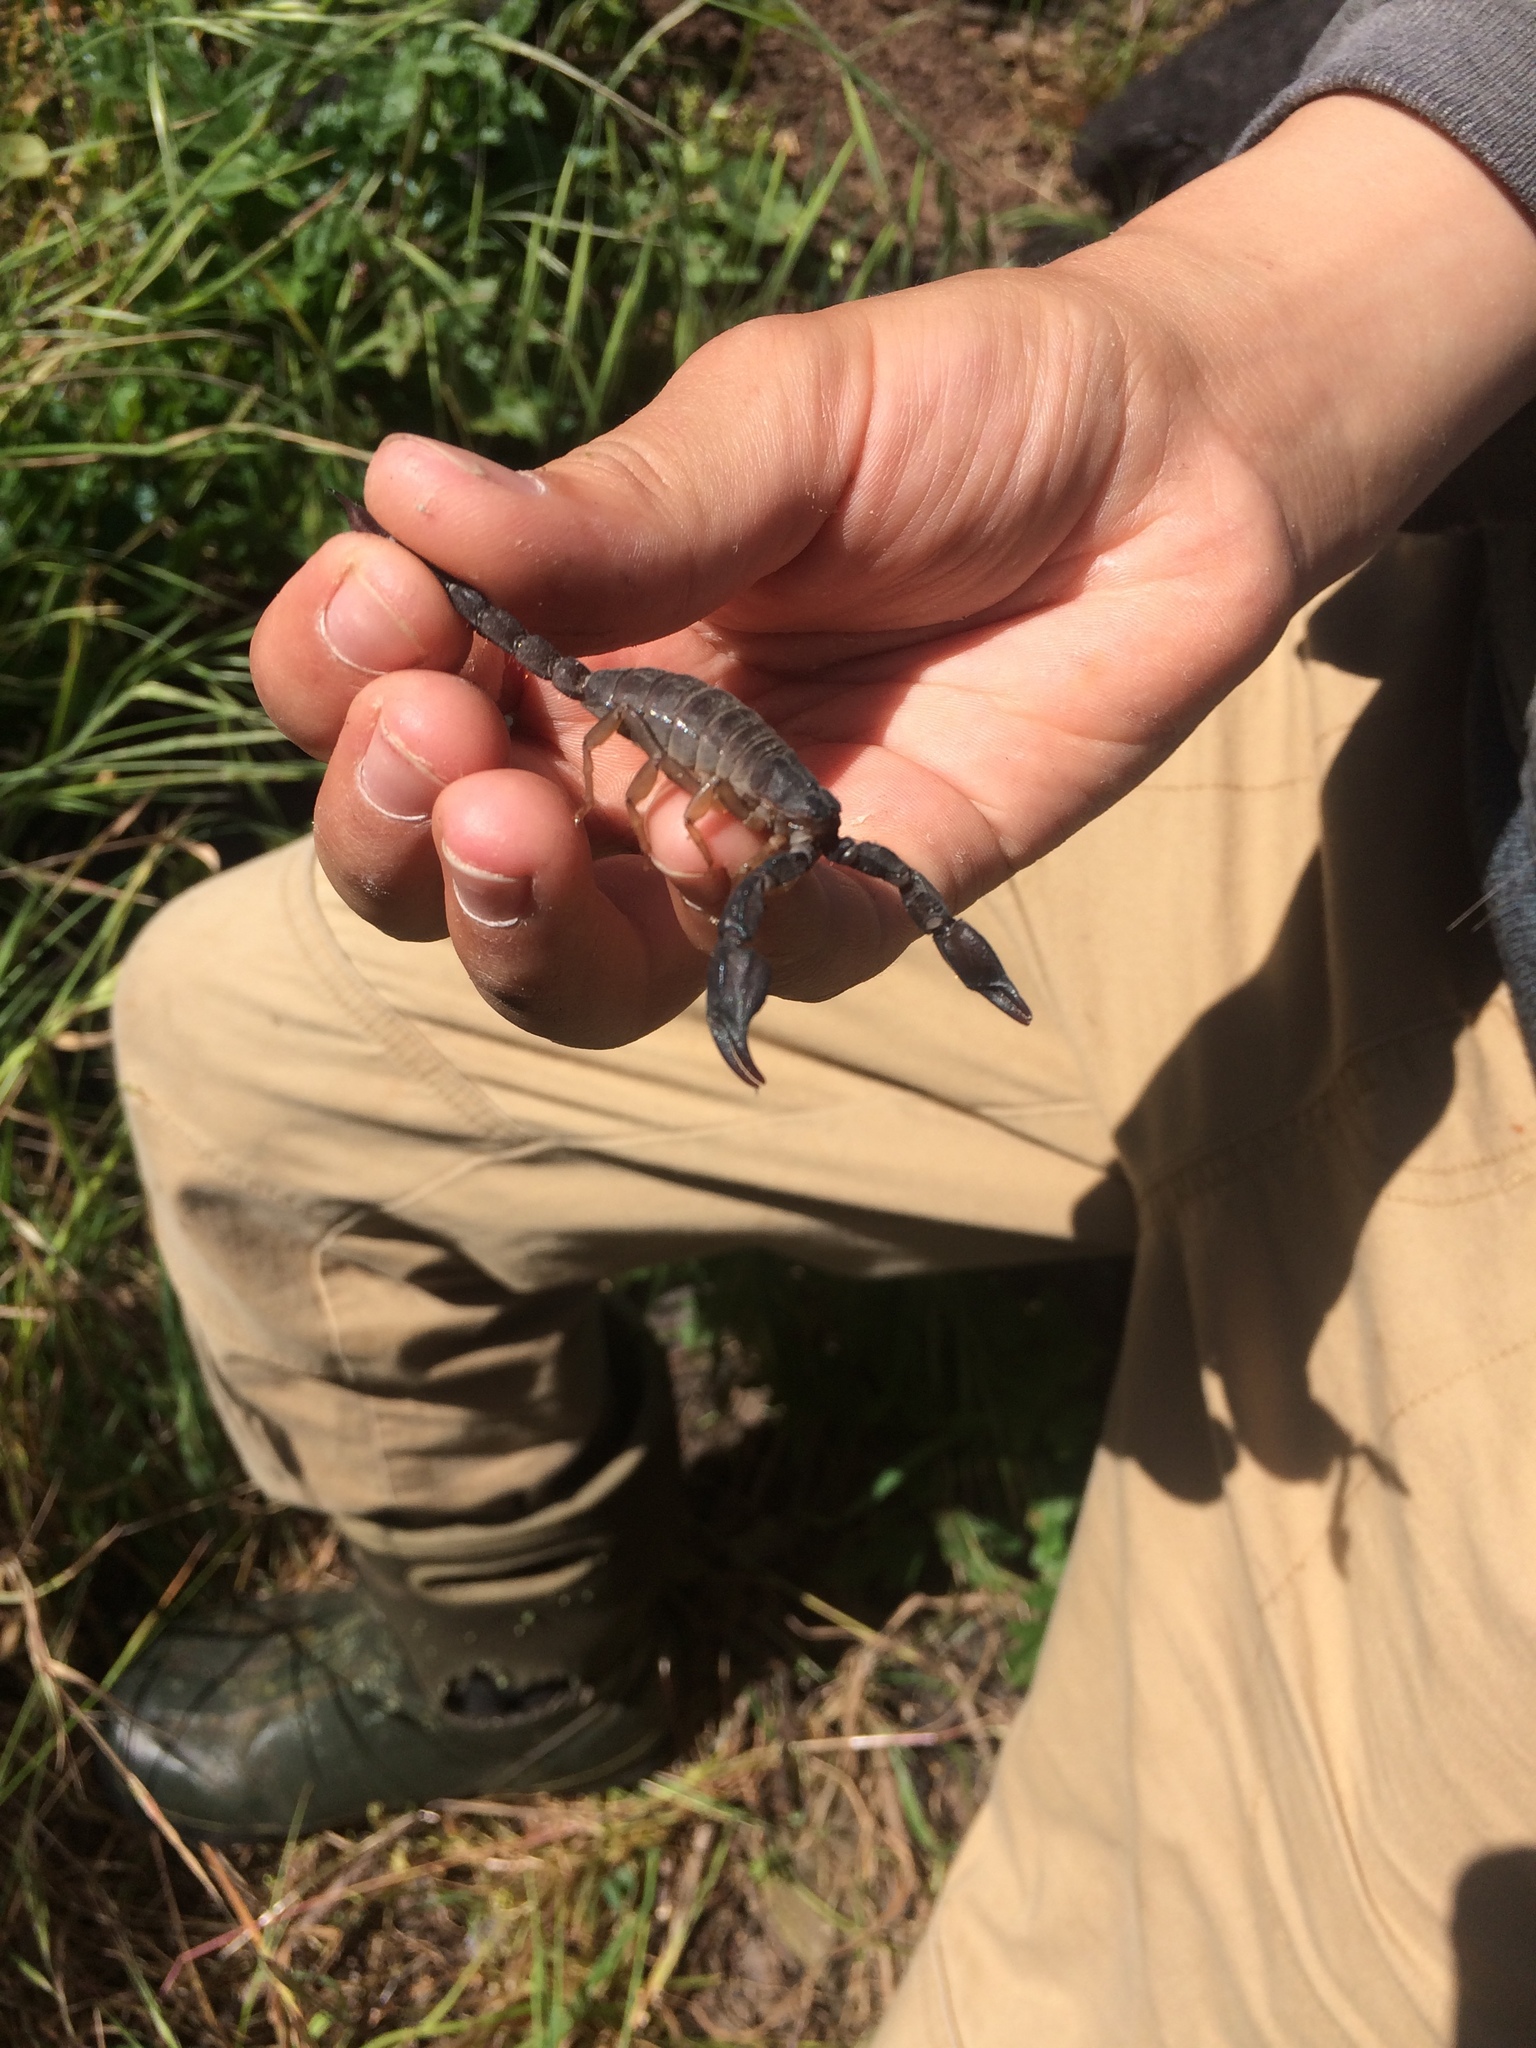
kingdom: Animalia
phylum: Arthropoda
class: Arachnida
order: Scorpiones
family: Chactidae
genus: Uroctonus
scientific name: Uroctonus mordax
